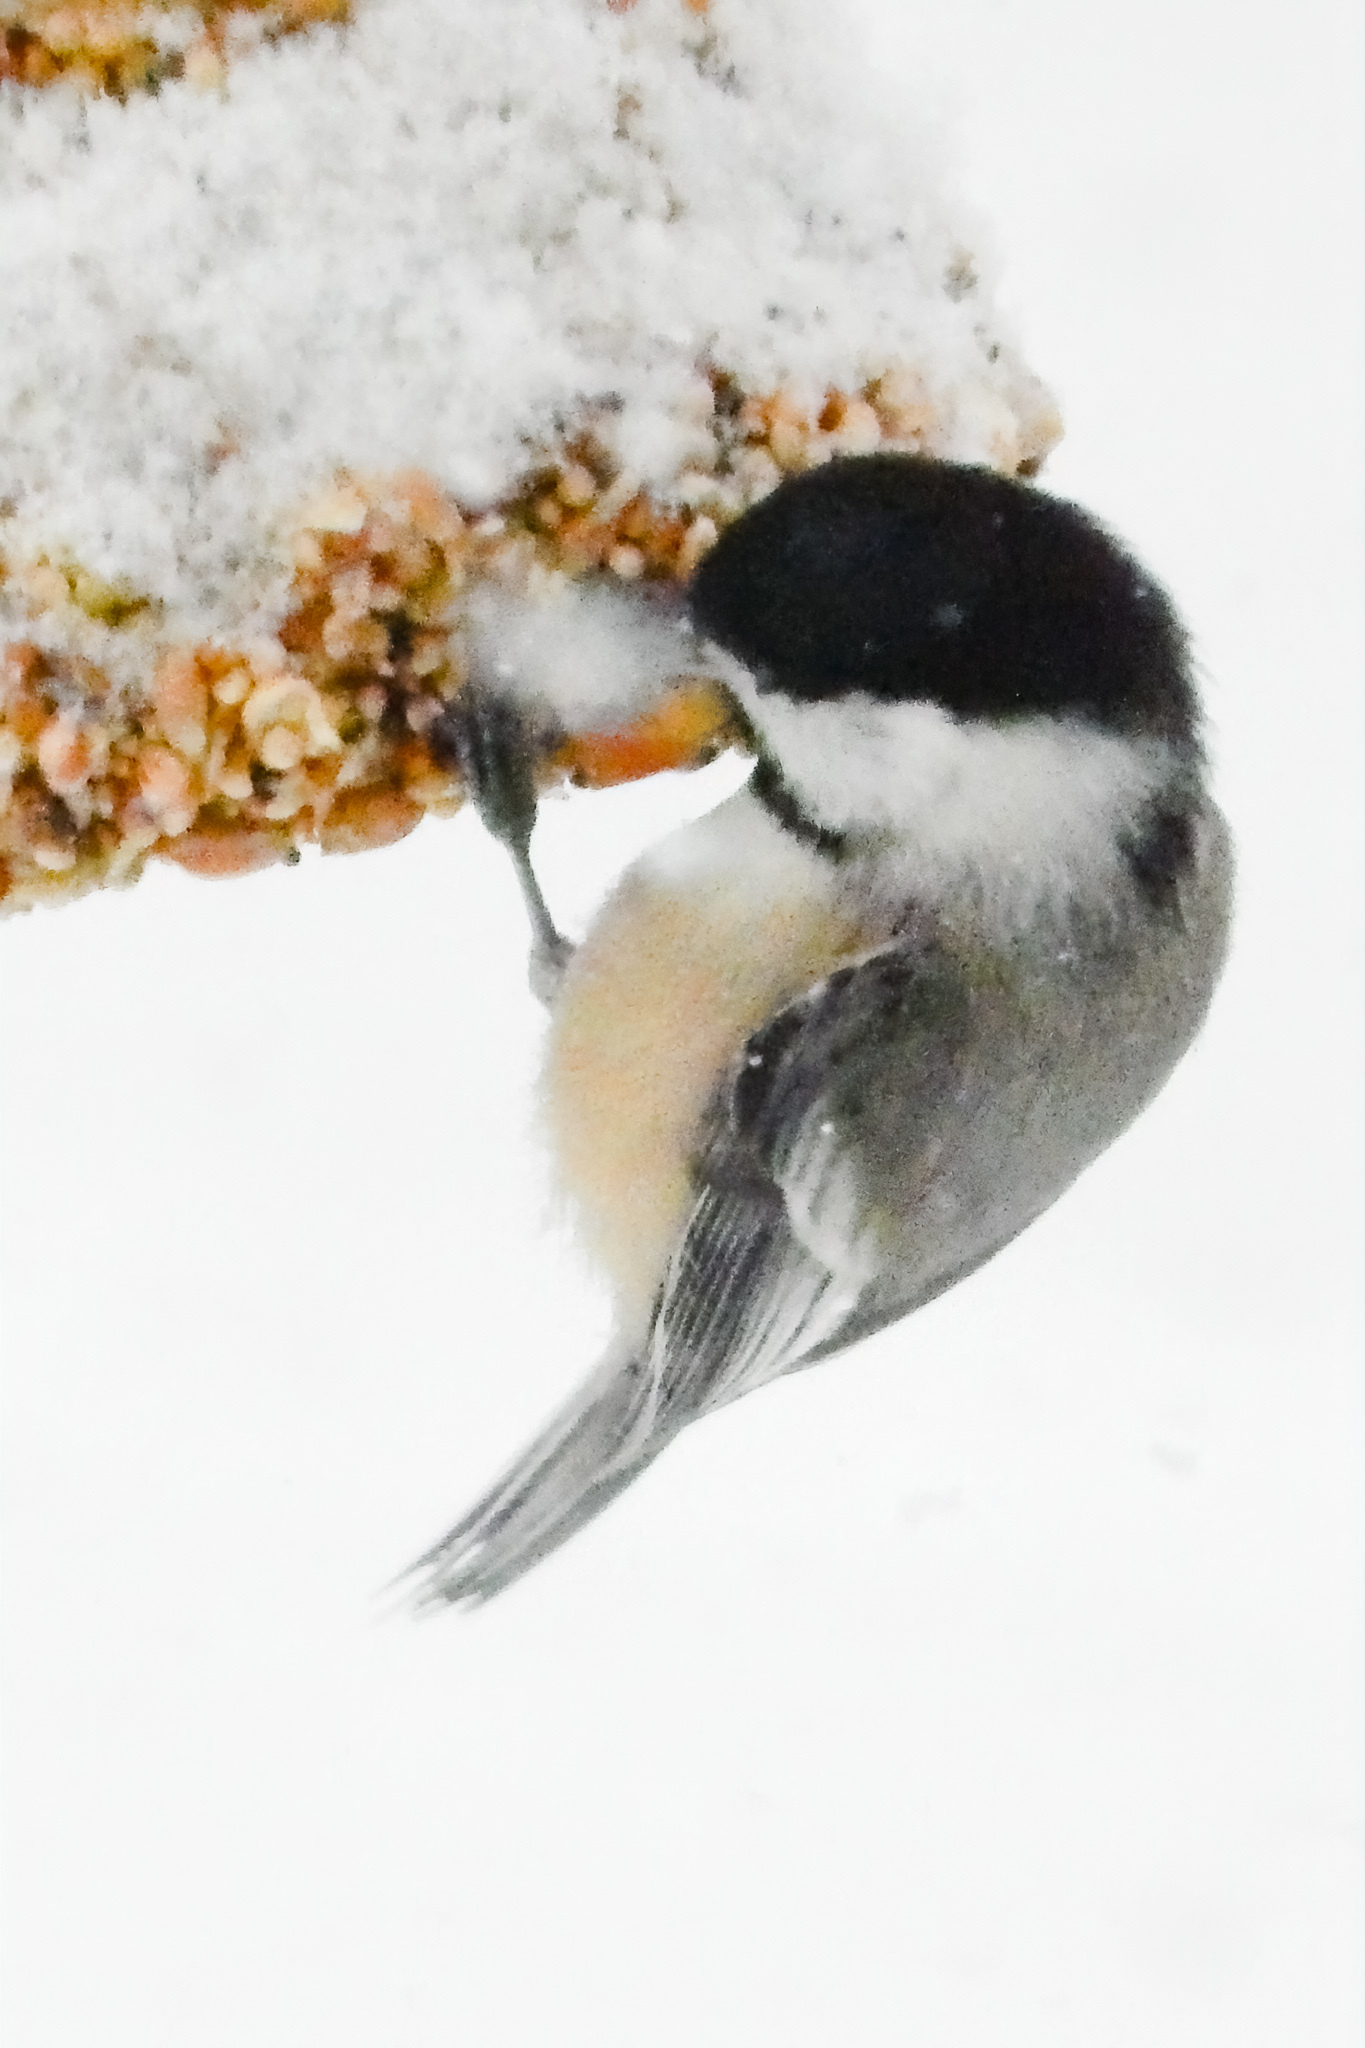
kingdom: Animalia
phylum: Chordata
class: Aves
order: Passeriformes
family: Paridae
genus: Poecile
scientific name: Poecile atricapillus
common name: Black-capped chickadee
